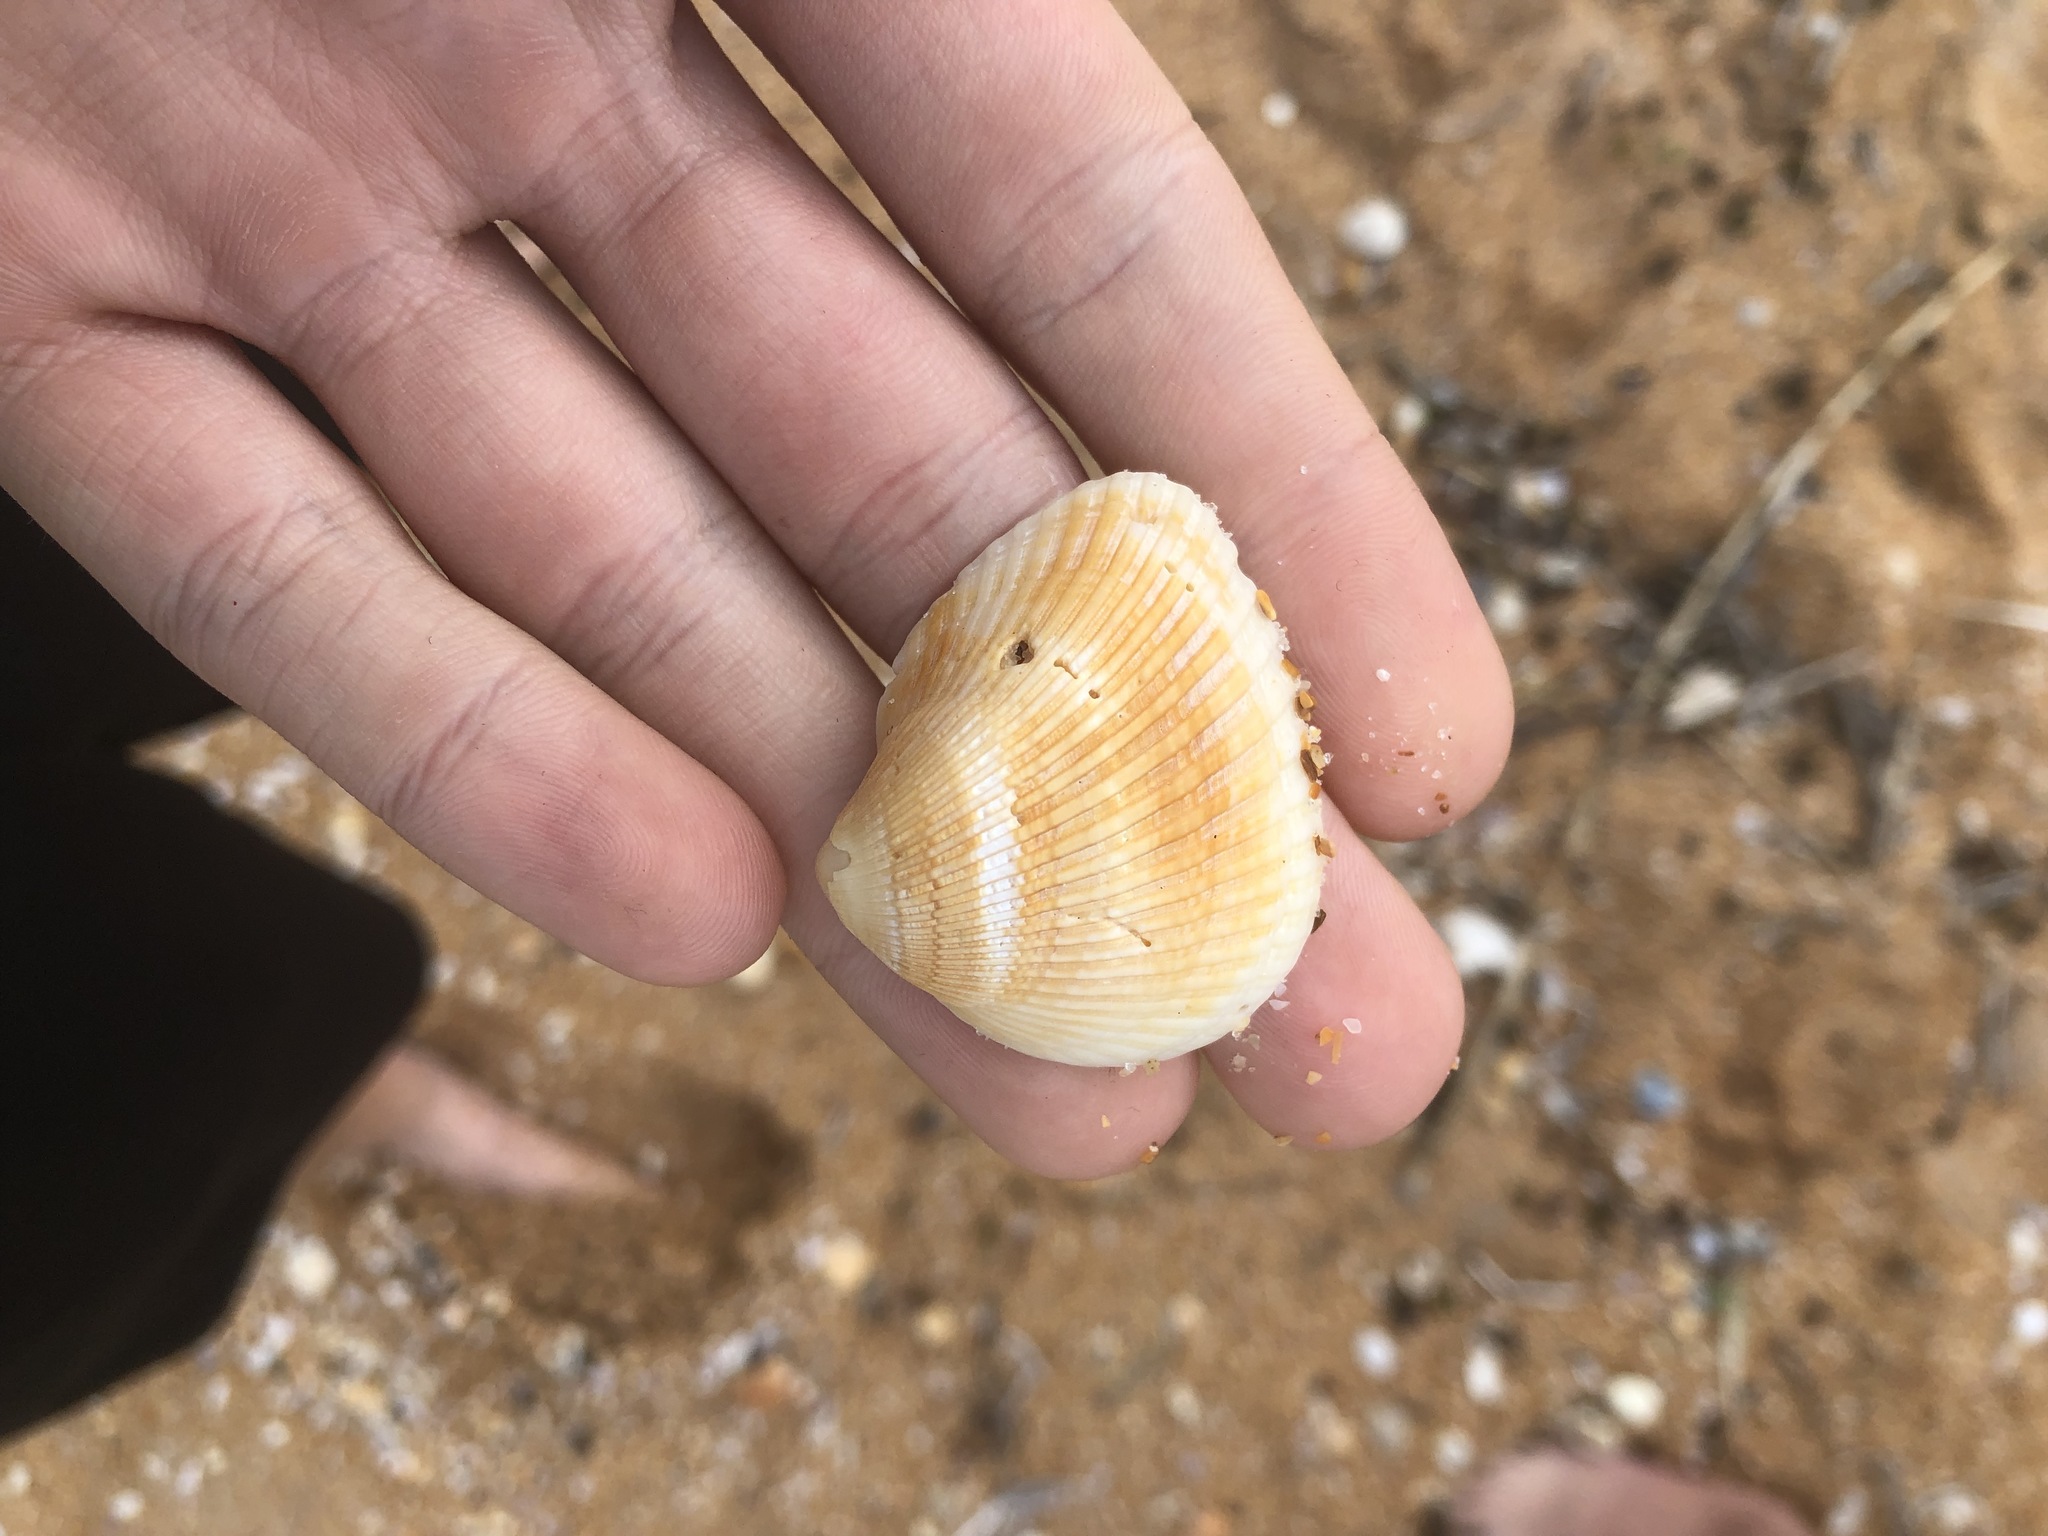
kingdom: Animalia
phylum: Mollusca
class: Bivalvia
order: Arcida
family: Noetiidae
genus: Noetia
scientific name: Noetia ponderosa
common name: Ponderous ark
